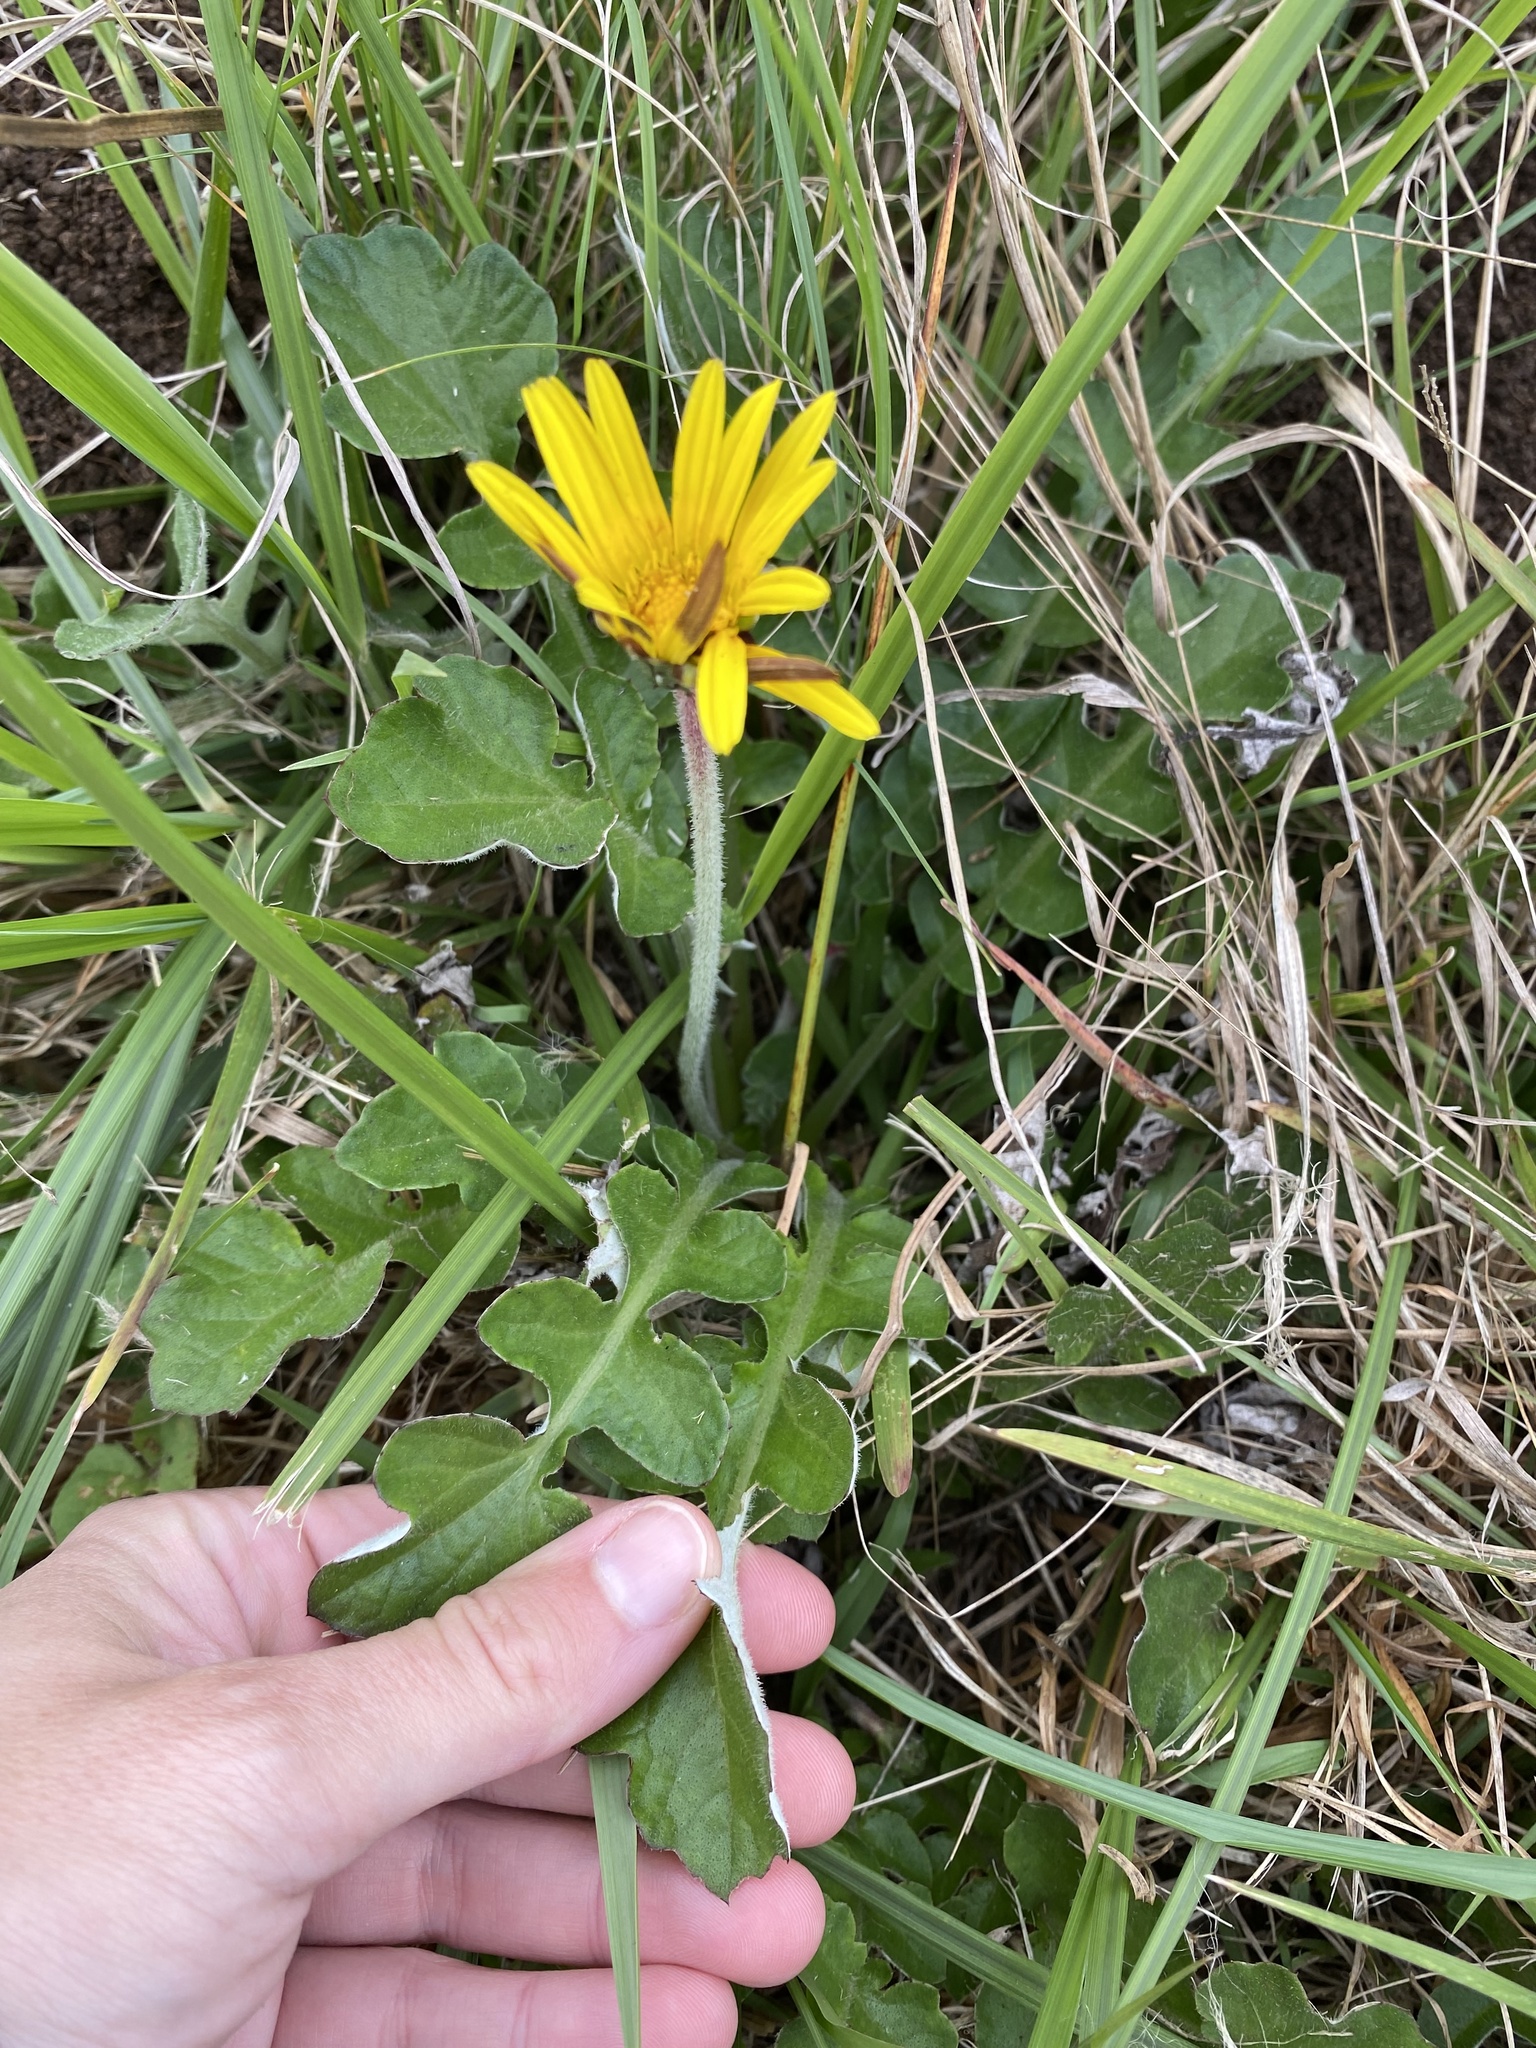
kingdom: Plantae
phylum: Tracheophyta
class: Magnoliopsida
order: Asterales
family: Asteraceae
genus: Arctotheca
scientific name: Arctotheca prostrata
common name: Capeweed
